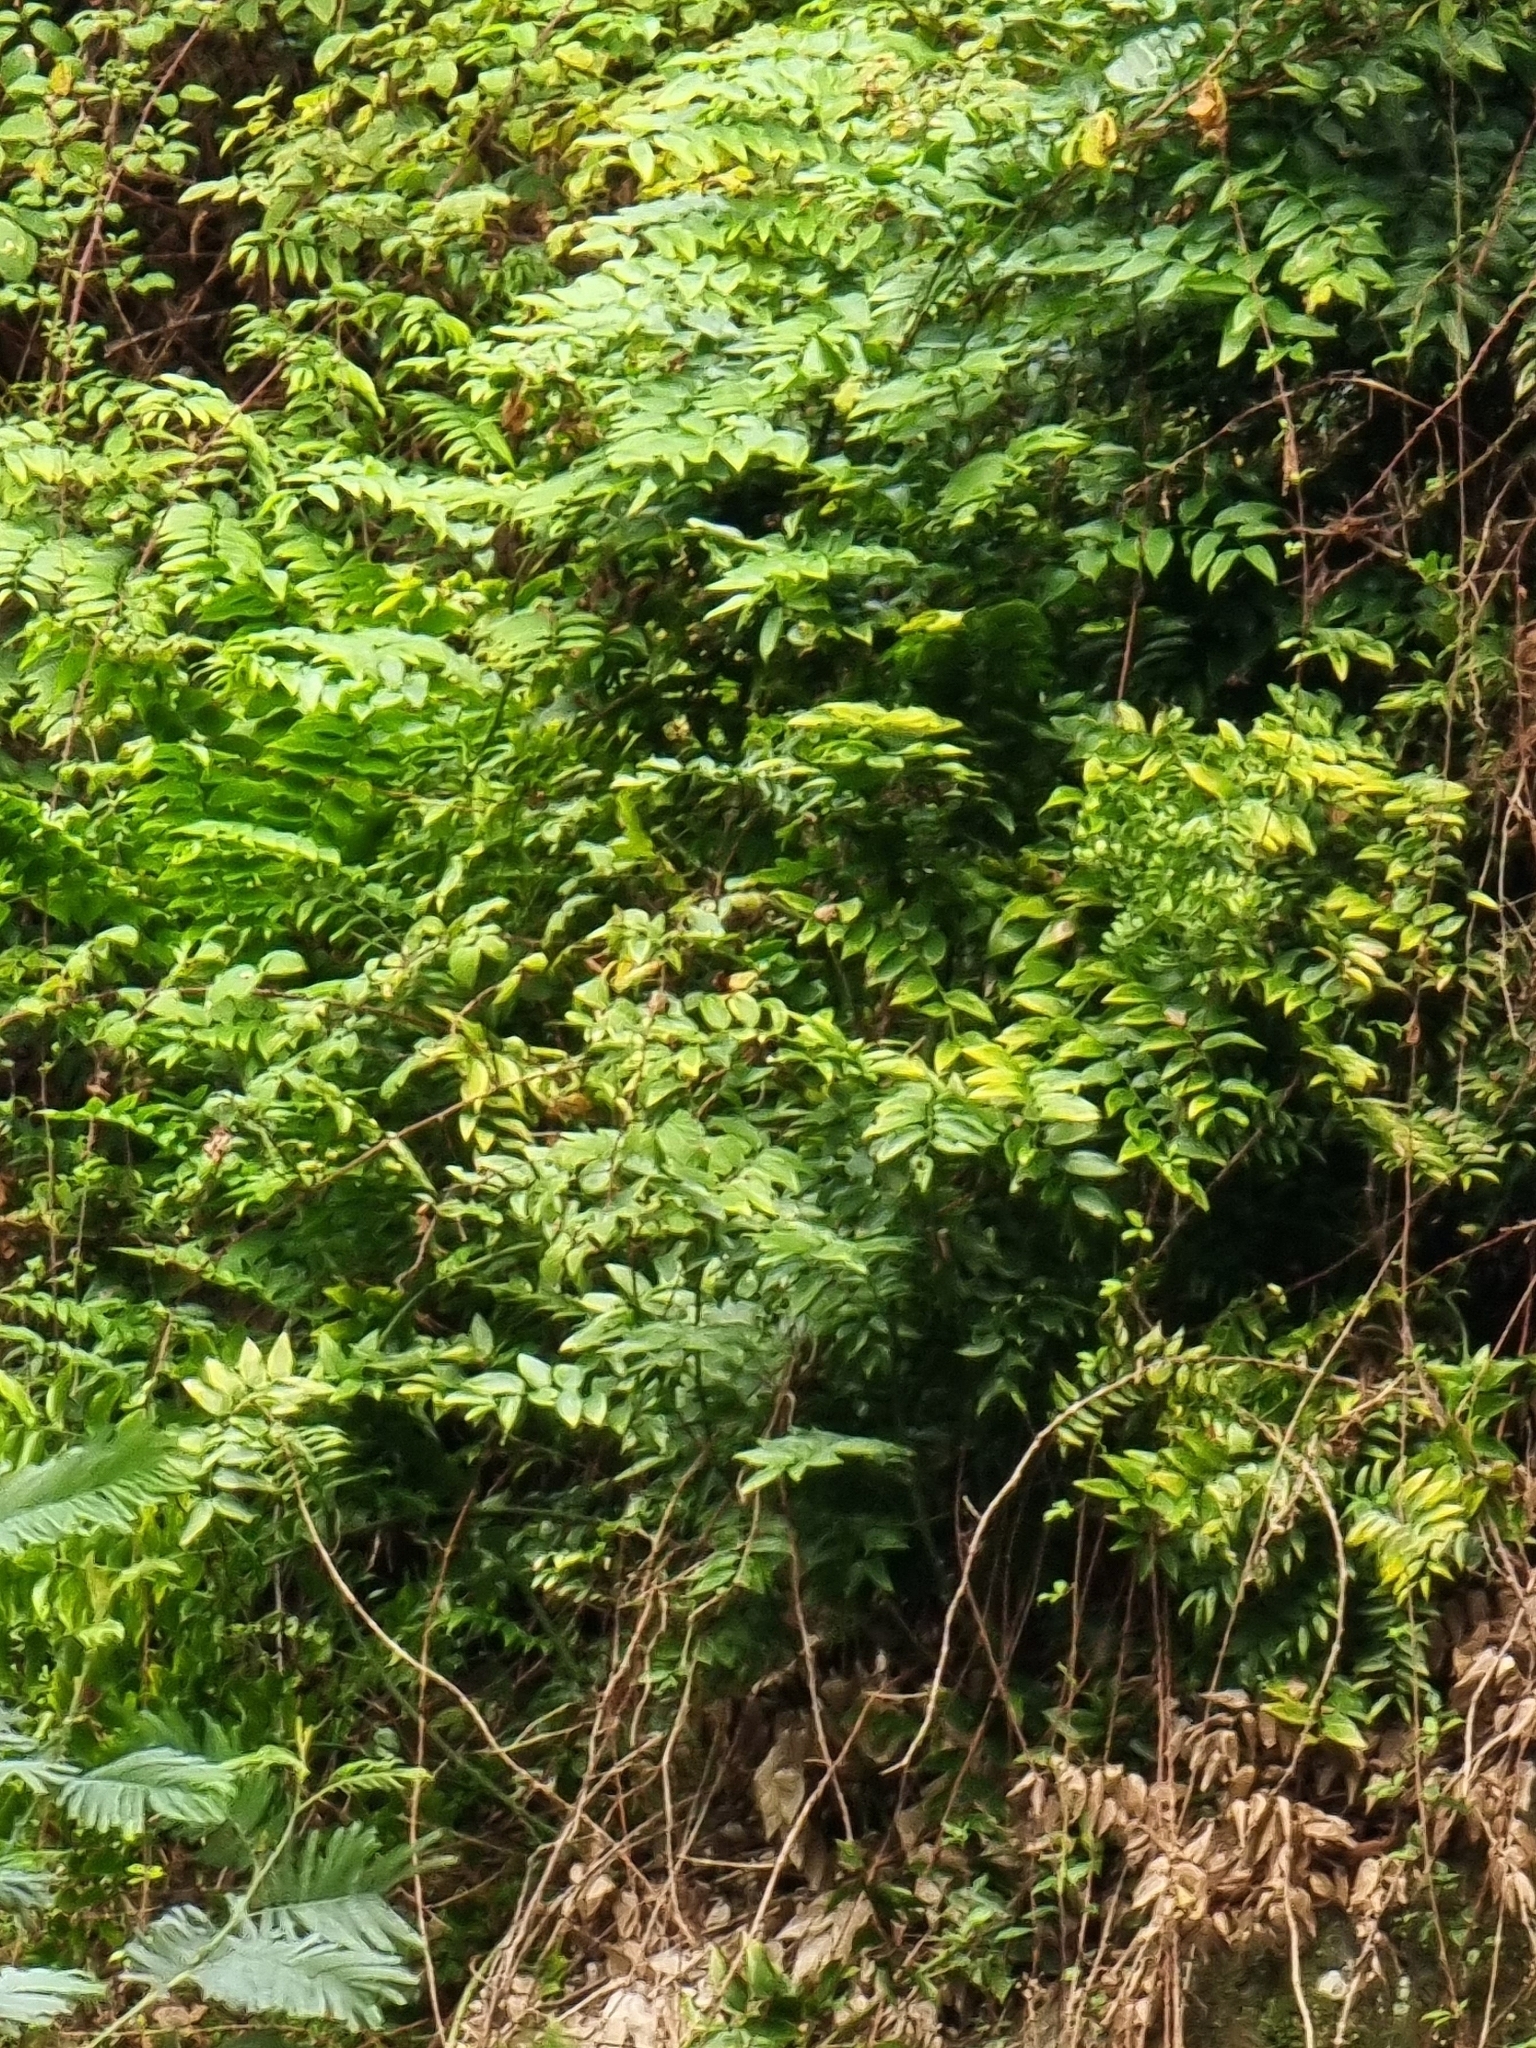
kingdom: Plantae
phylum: Tracheophyta
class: Liliopsida
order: Asparagales
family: Asparagaceae
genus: Semele
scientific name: Semele androgyna
